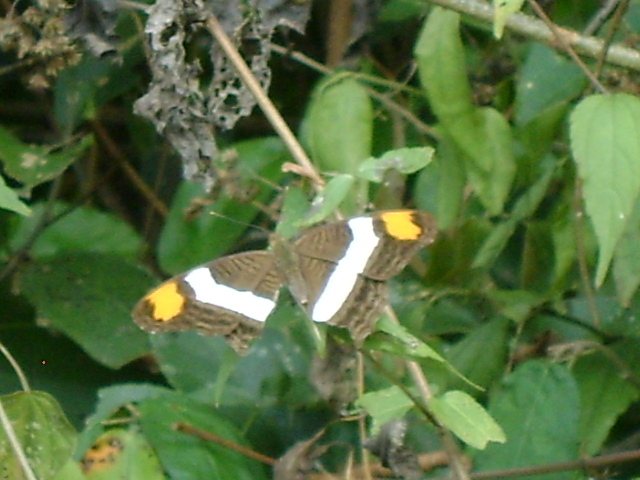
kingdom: Animalia
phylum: Arthropoda
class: Insecta
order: Lepidoptera
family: Nymphalidae
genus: Limenitis
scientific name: Limenitis fessonia
